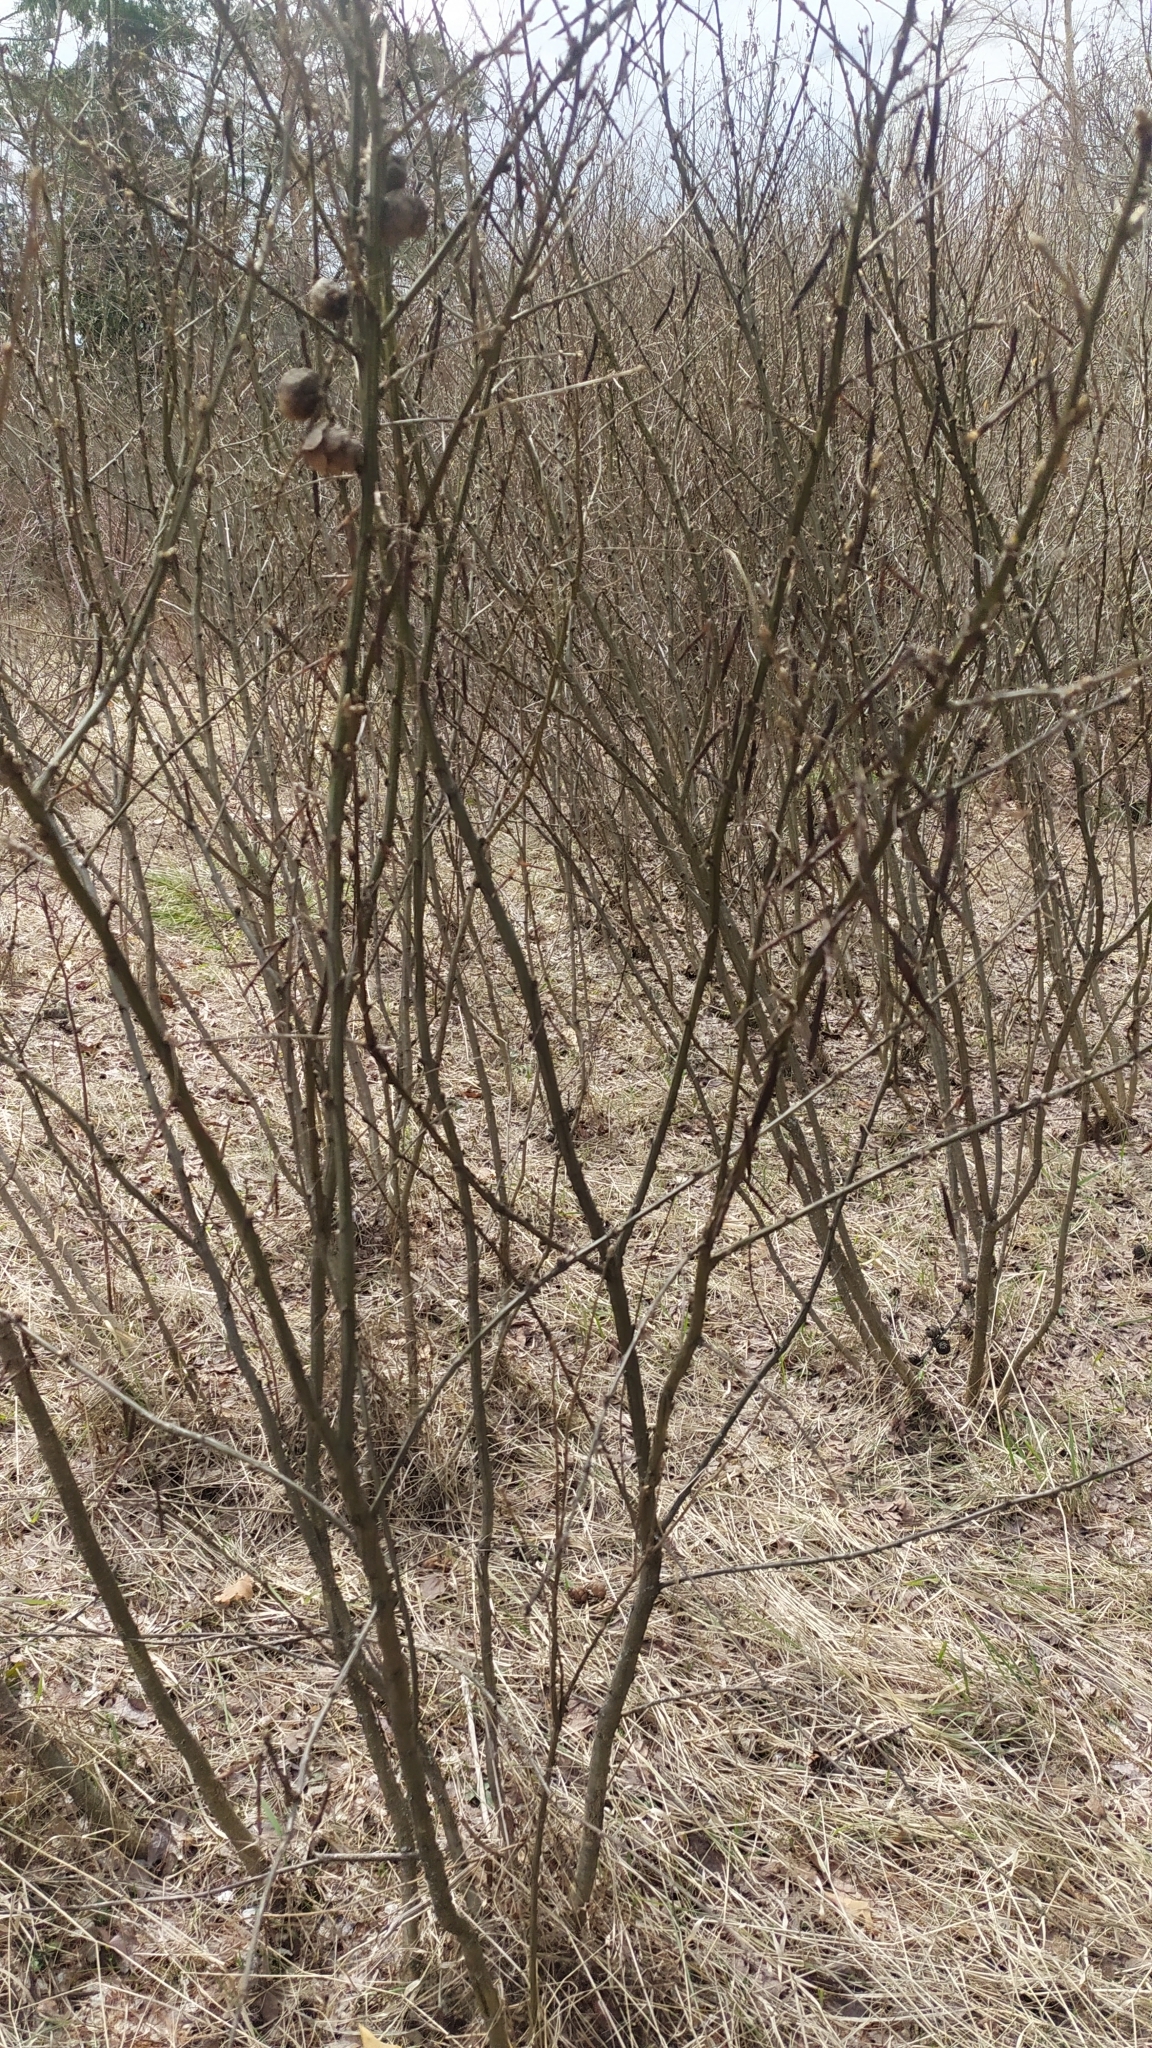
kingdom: Plantae
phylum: Tracheophyta
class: Magnoliopsida
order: Fabales
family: Fabaceae
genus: Caragana
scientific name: Caragana arborescens
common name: Siberian peashrub
